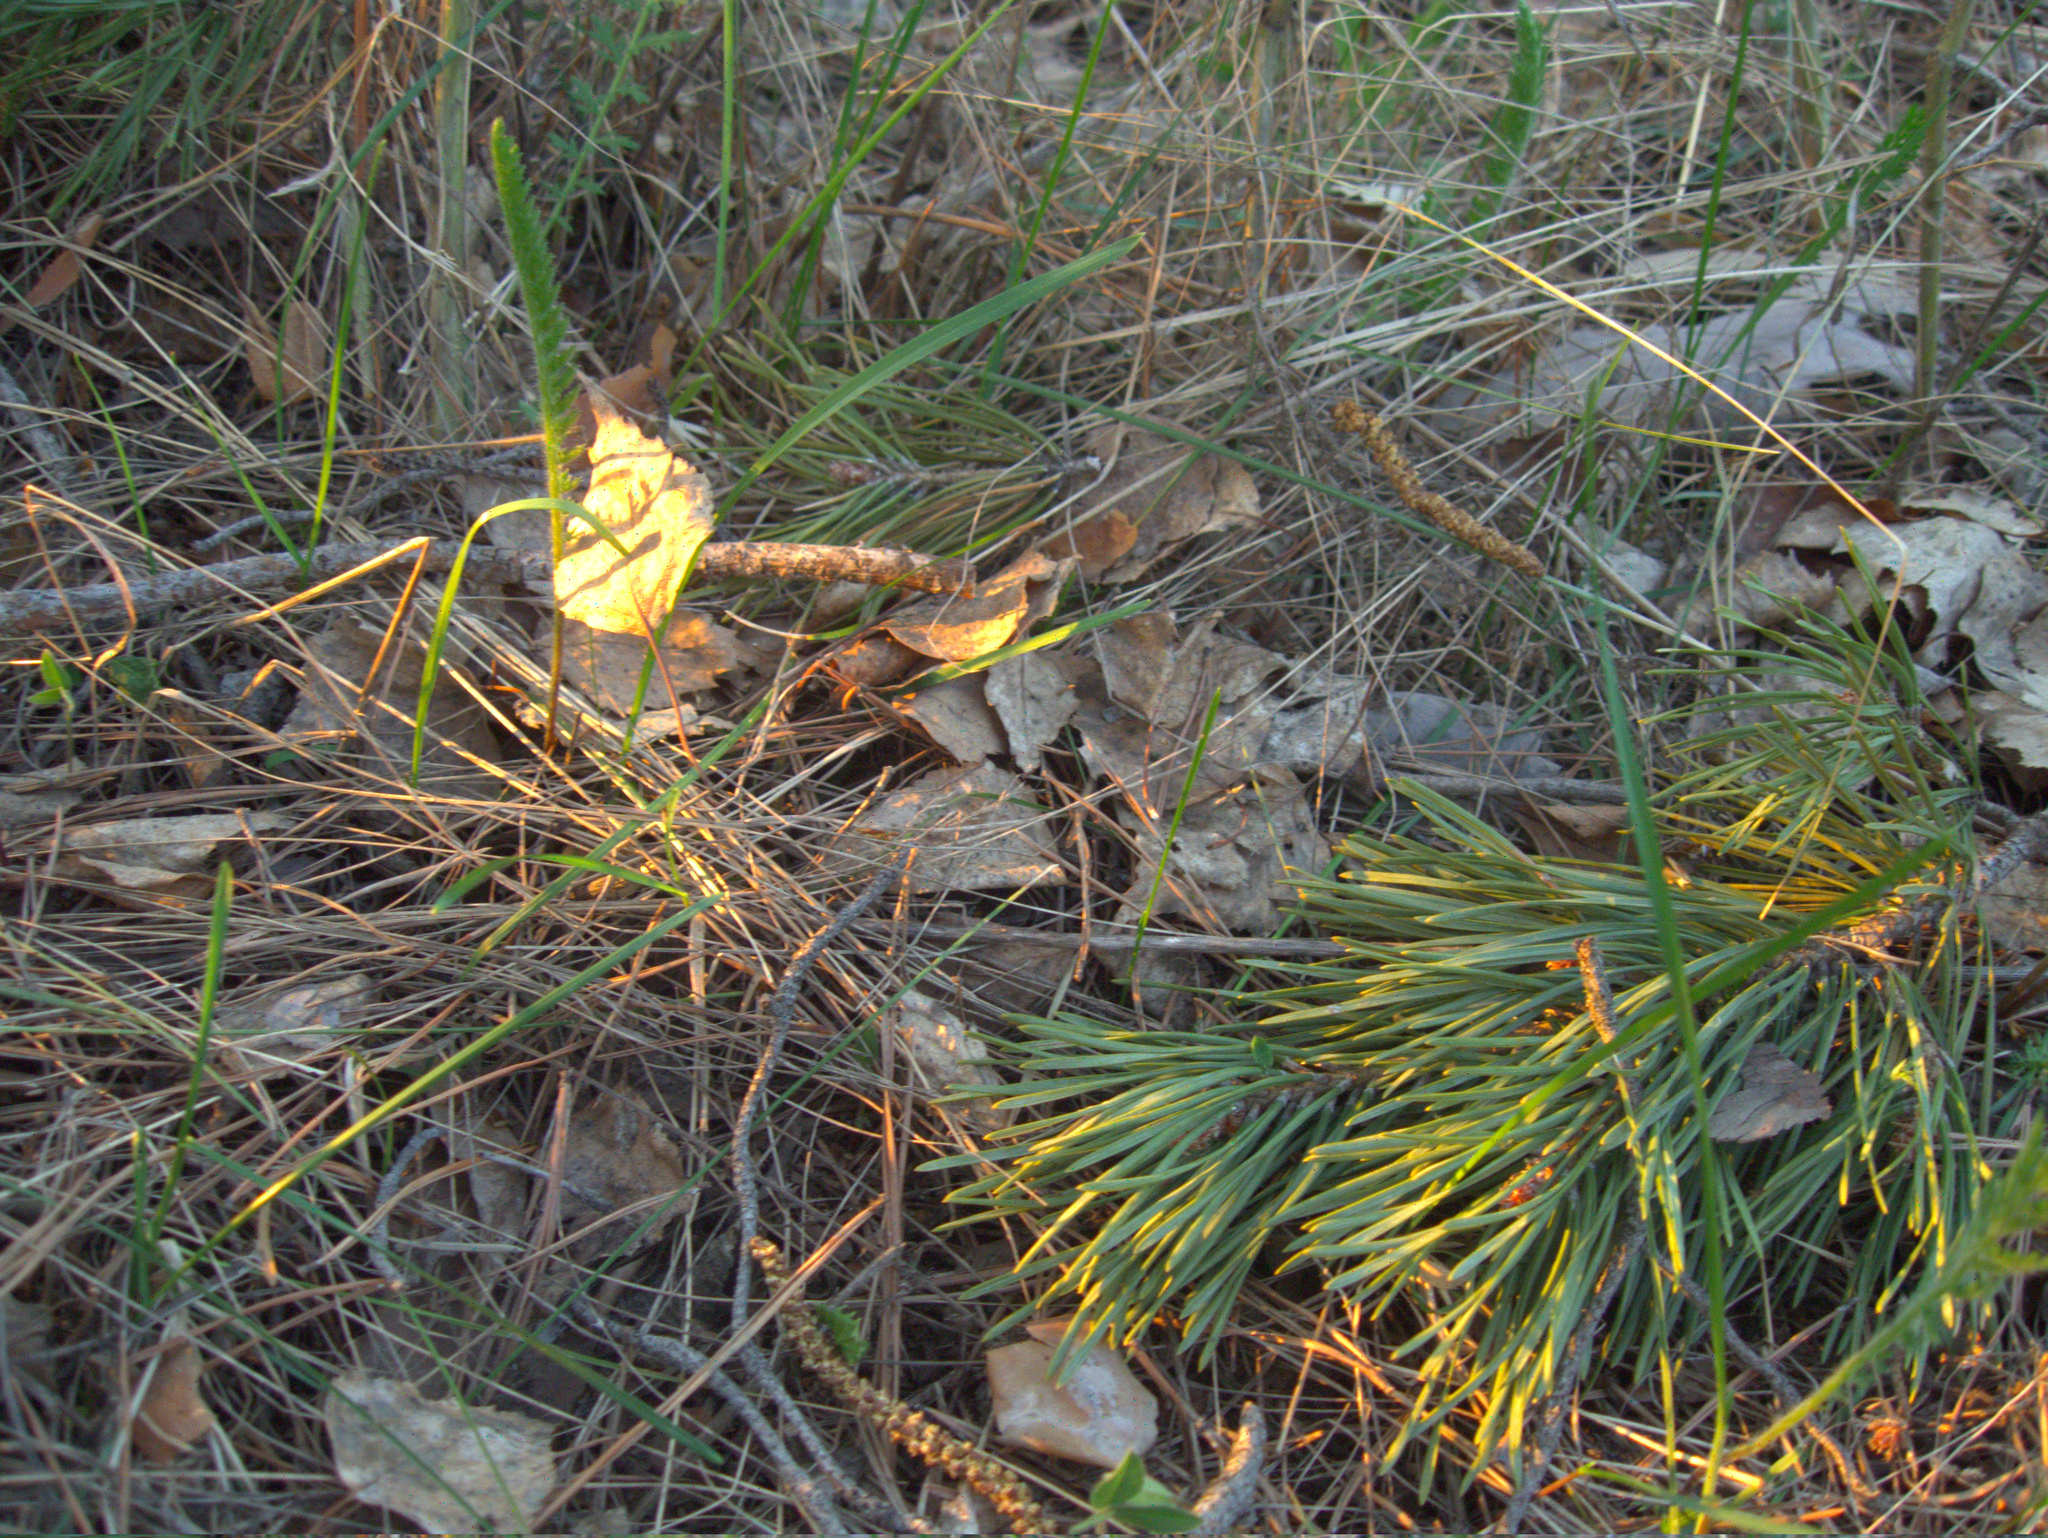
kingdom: Plantae
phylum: Tracheophyta
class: Pinopsida
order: Pinales
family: Pinaceae
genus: Pinus
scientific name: Pinus sylvestris
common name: Scots pine
